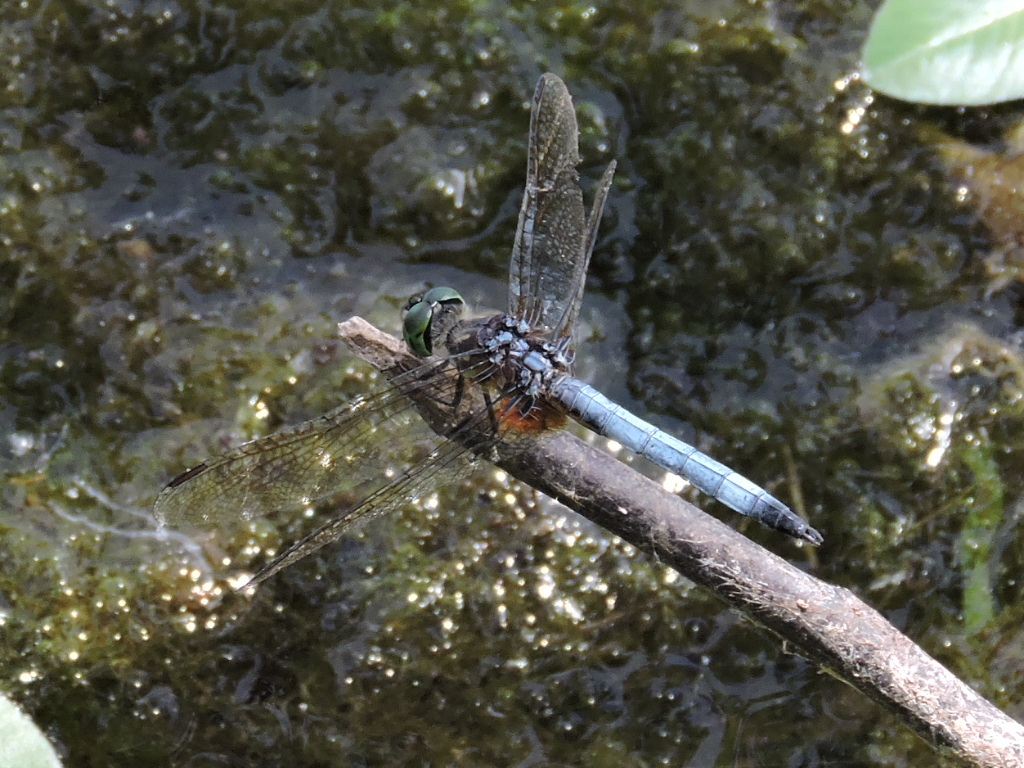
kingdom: Animalia
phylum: Arthropoda
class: Insecta
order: Odonata
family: Libellulidae
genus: Pachydiplax
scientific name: Pachydiplax longipennis
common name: Blue dasher
